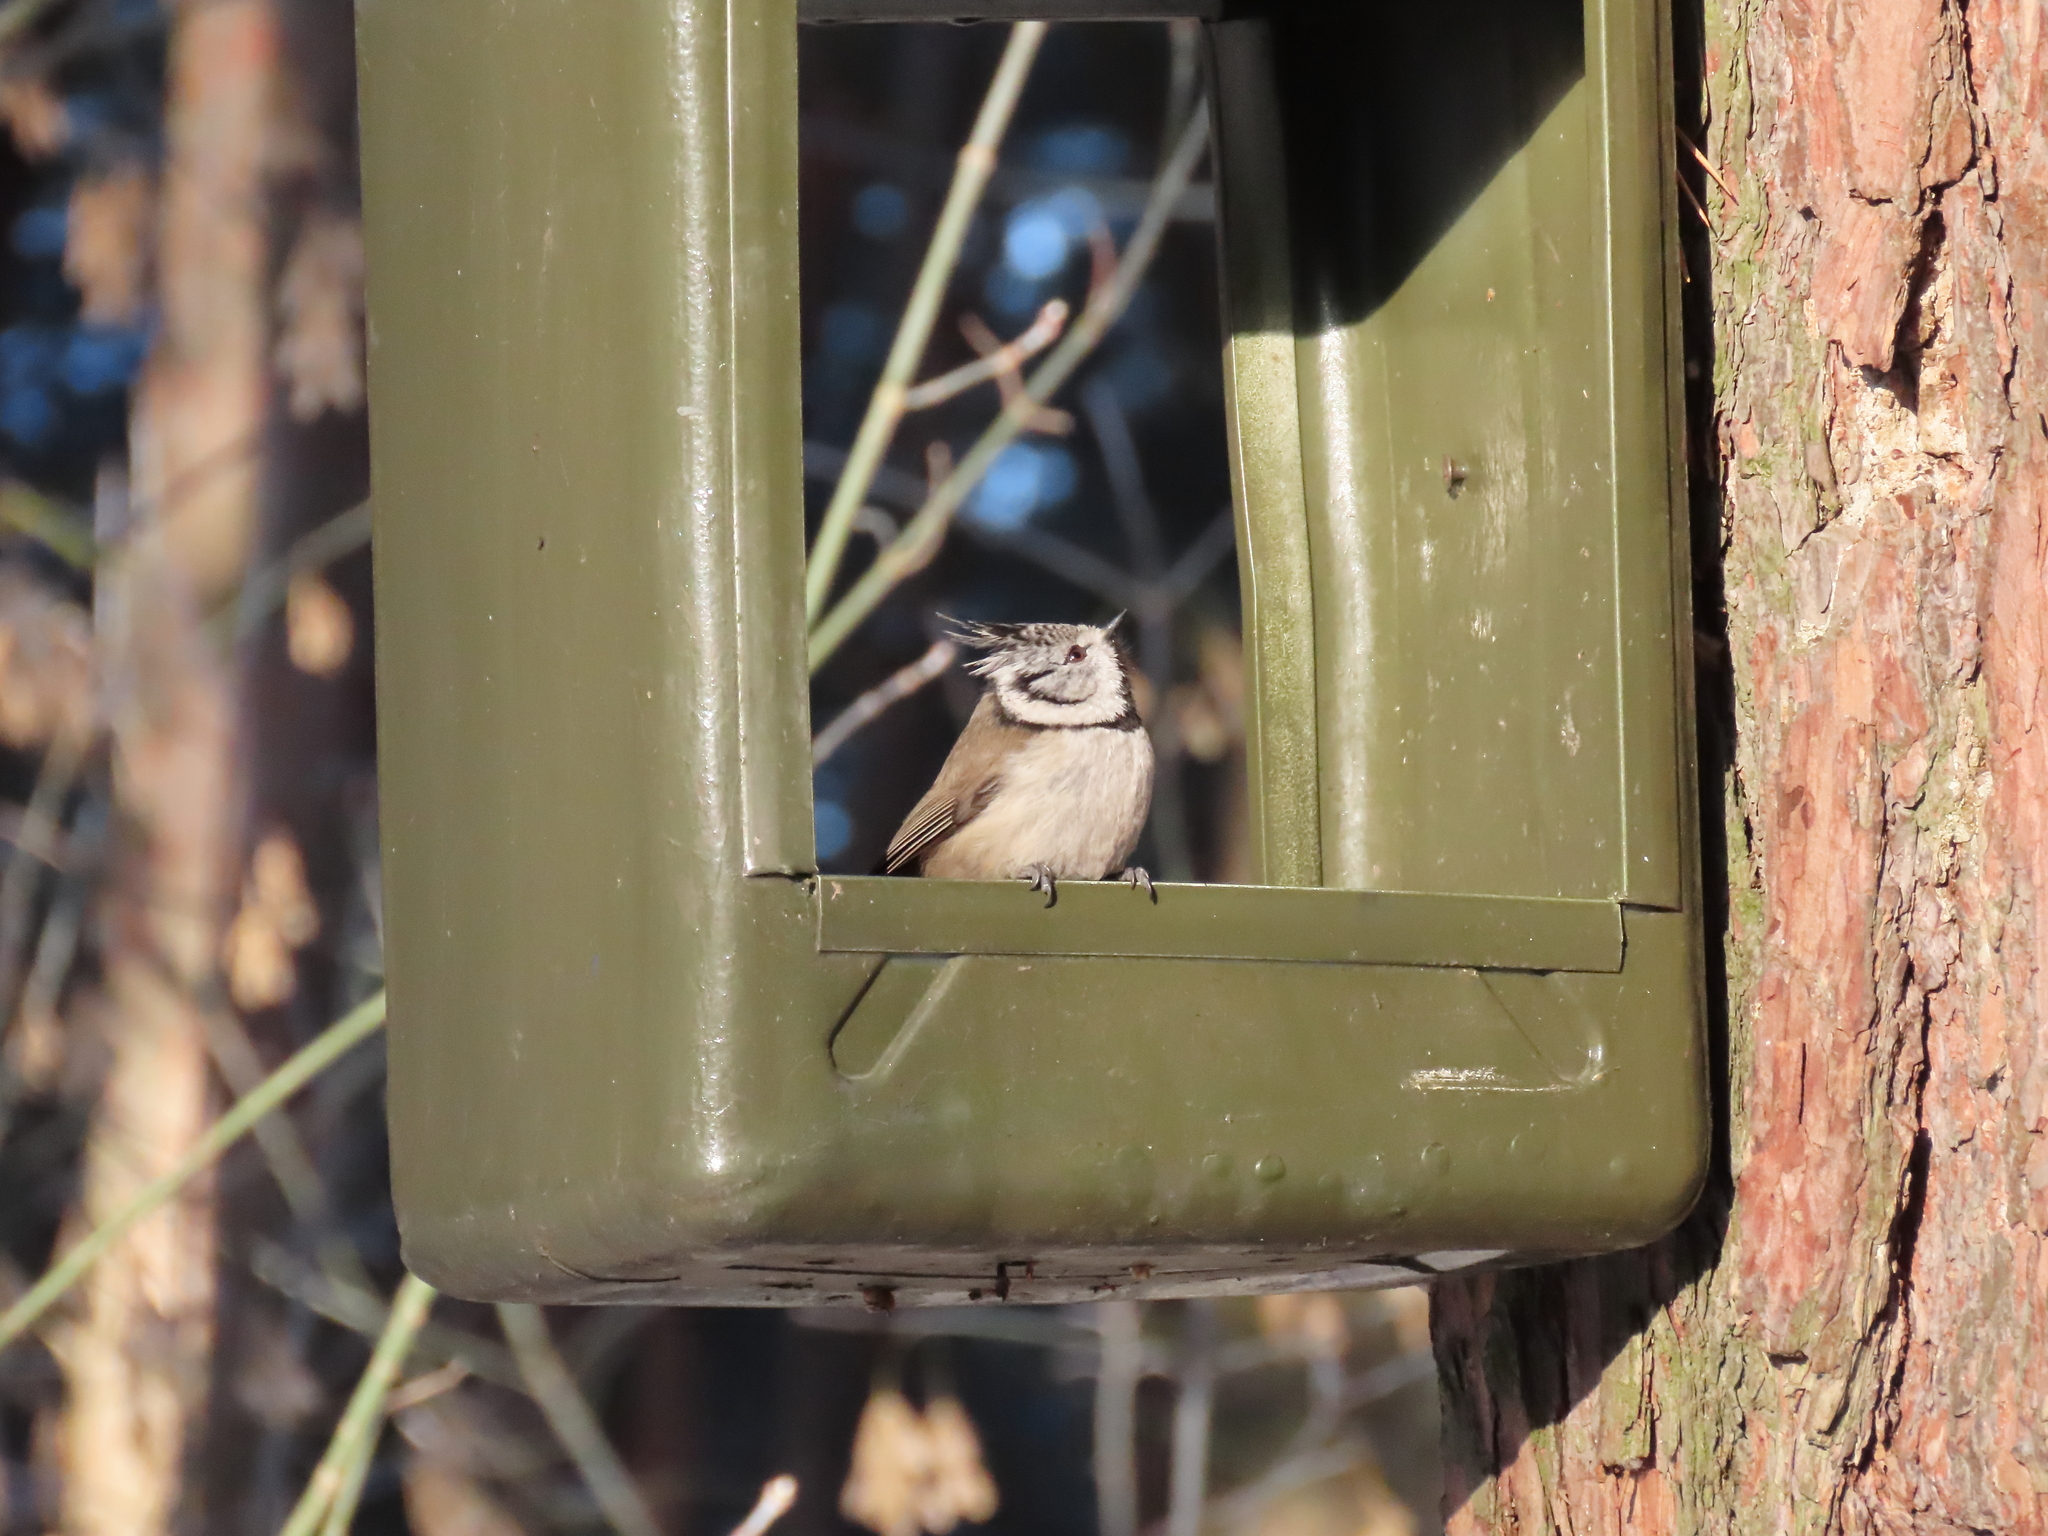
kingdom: Animalia
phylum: Chordata
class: Aves
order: Passeriformes
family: Paridae
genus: Lophophanes
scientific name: Lophophanes cristatus
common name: European crested tit
